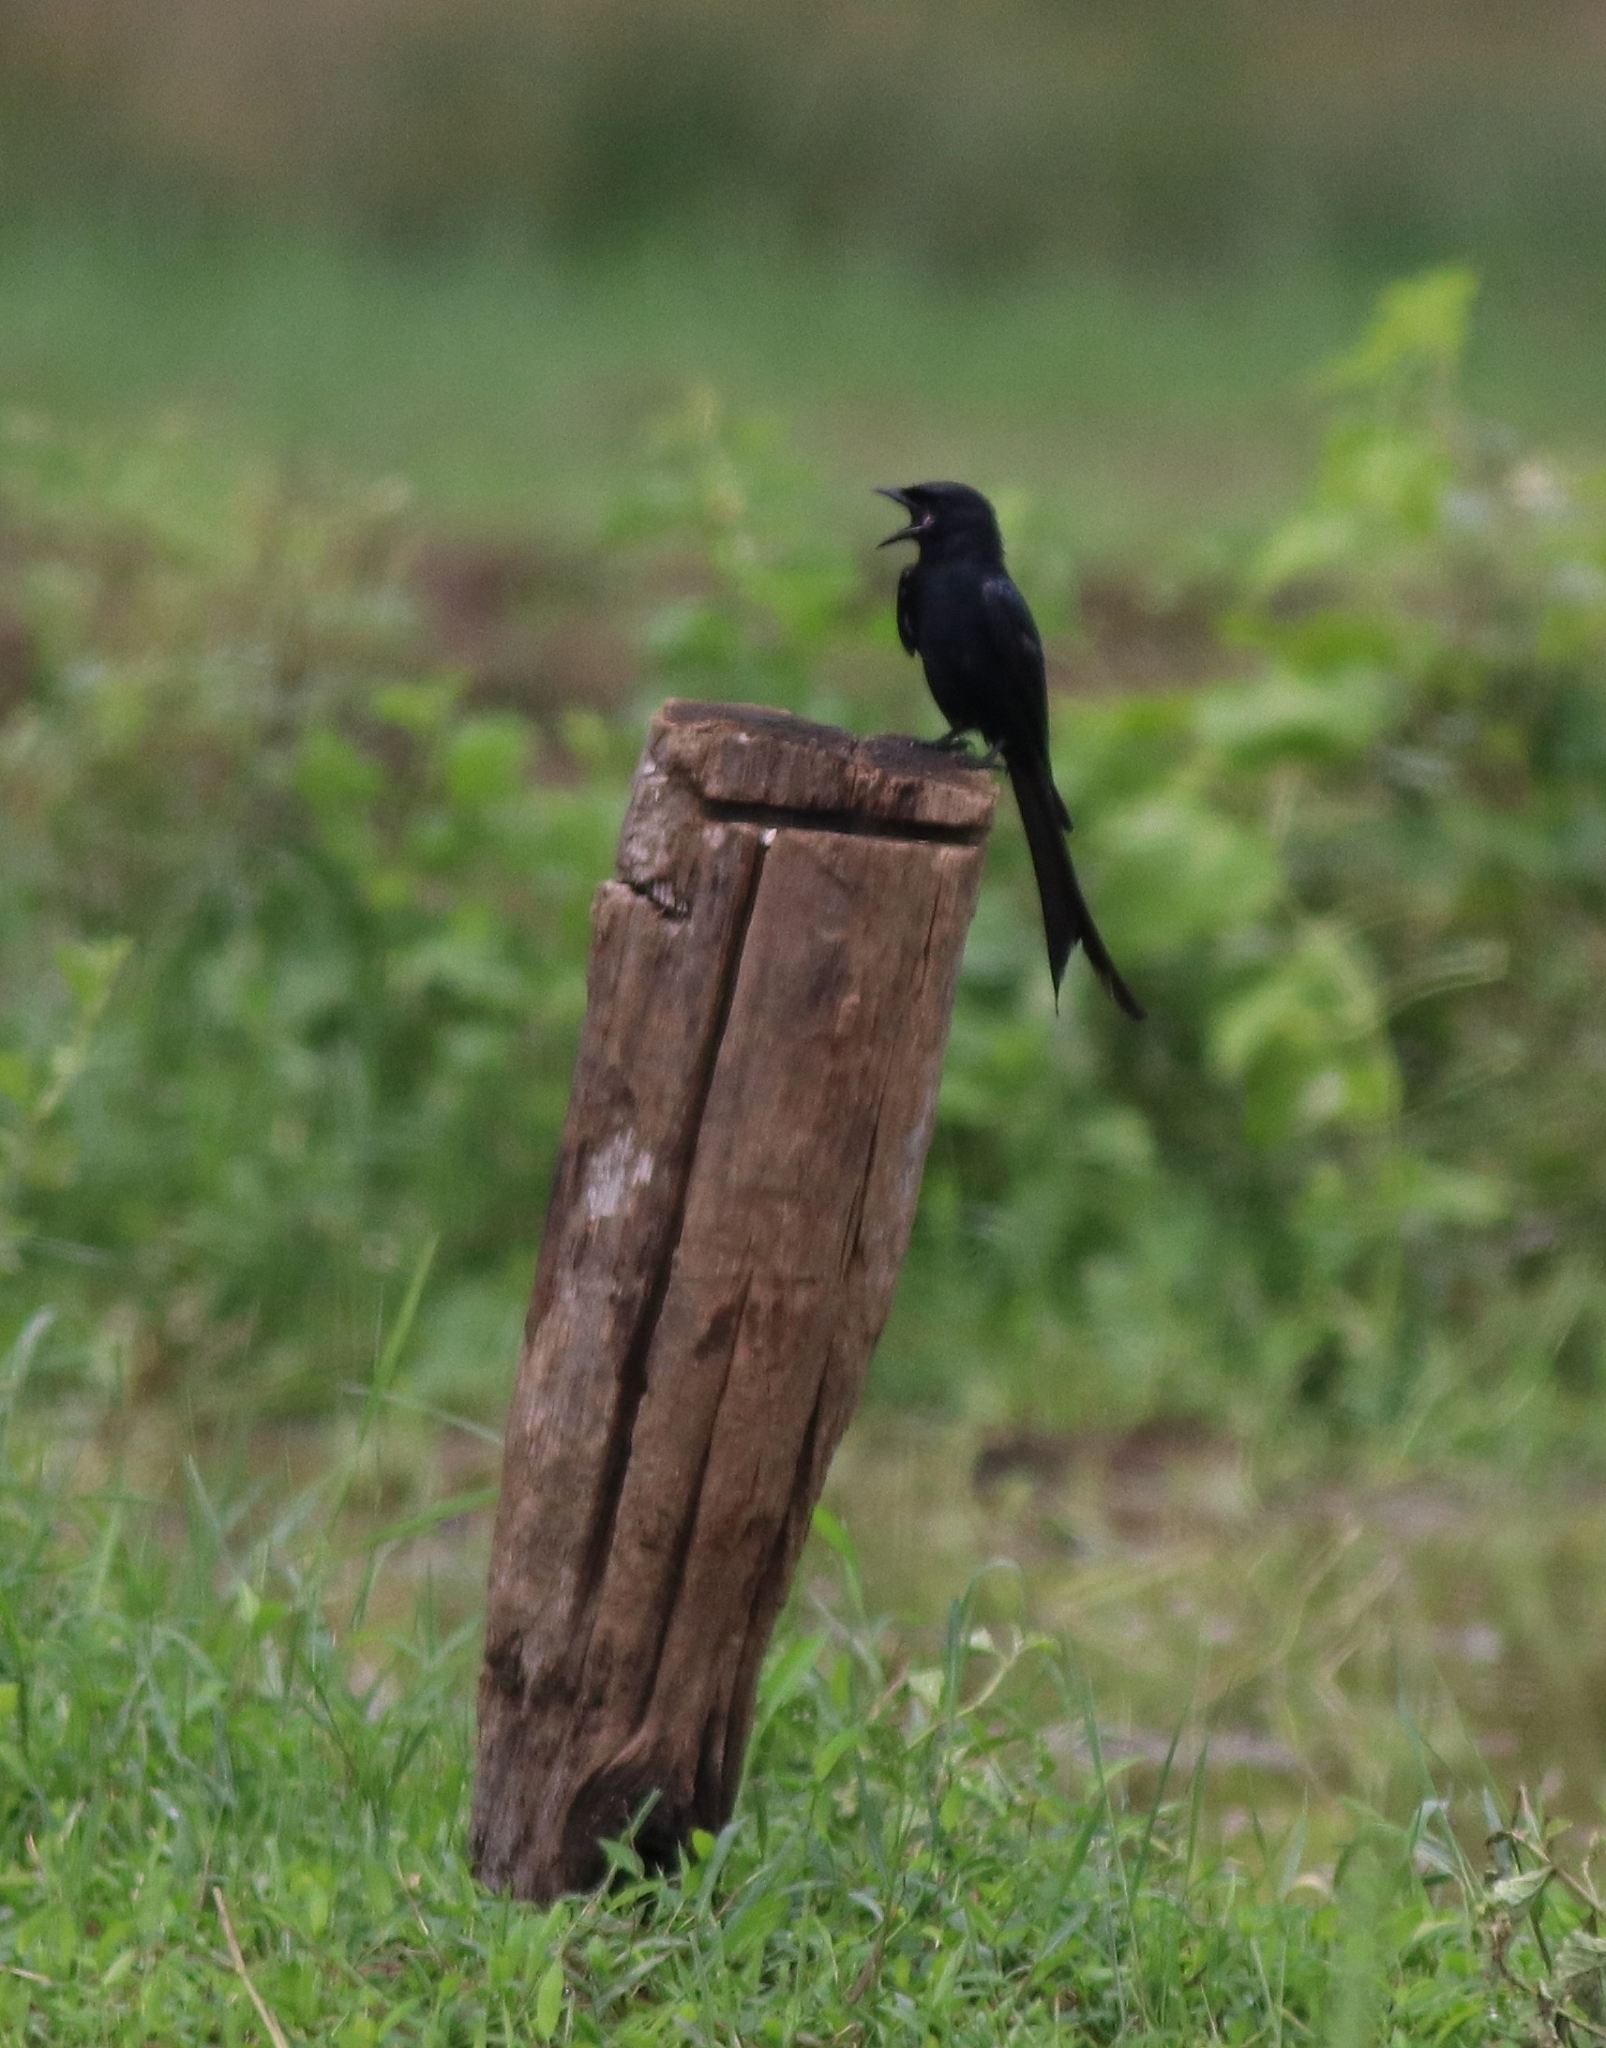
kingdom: Animalia
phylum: Chordata
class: Aves
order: Passeriformes
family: Dicruridae
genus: Dicrurus
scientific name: Dicrurus macrocercus
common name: Black drongo
